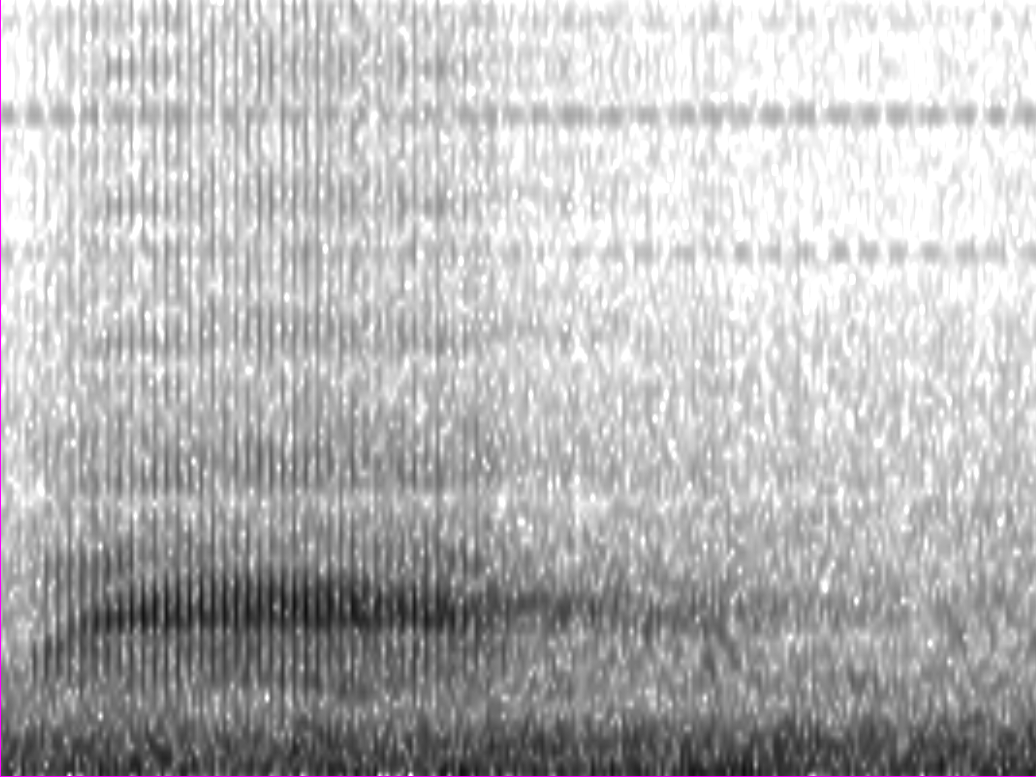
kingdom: Animalia
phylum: Chordata
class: Aves
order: Charadriiformes
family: Scolopacidae
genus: Scolopax
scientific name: Scolopax minor
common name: American woodcock
